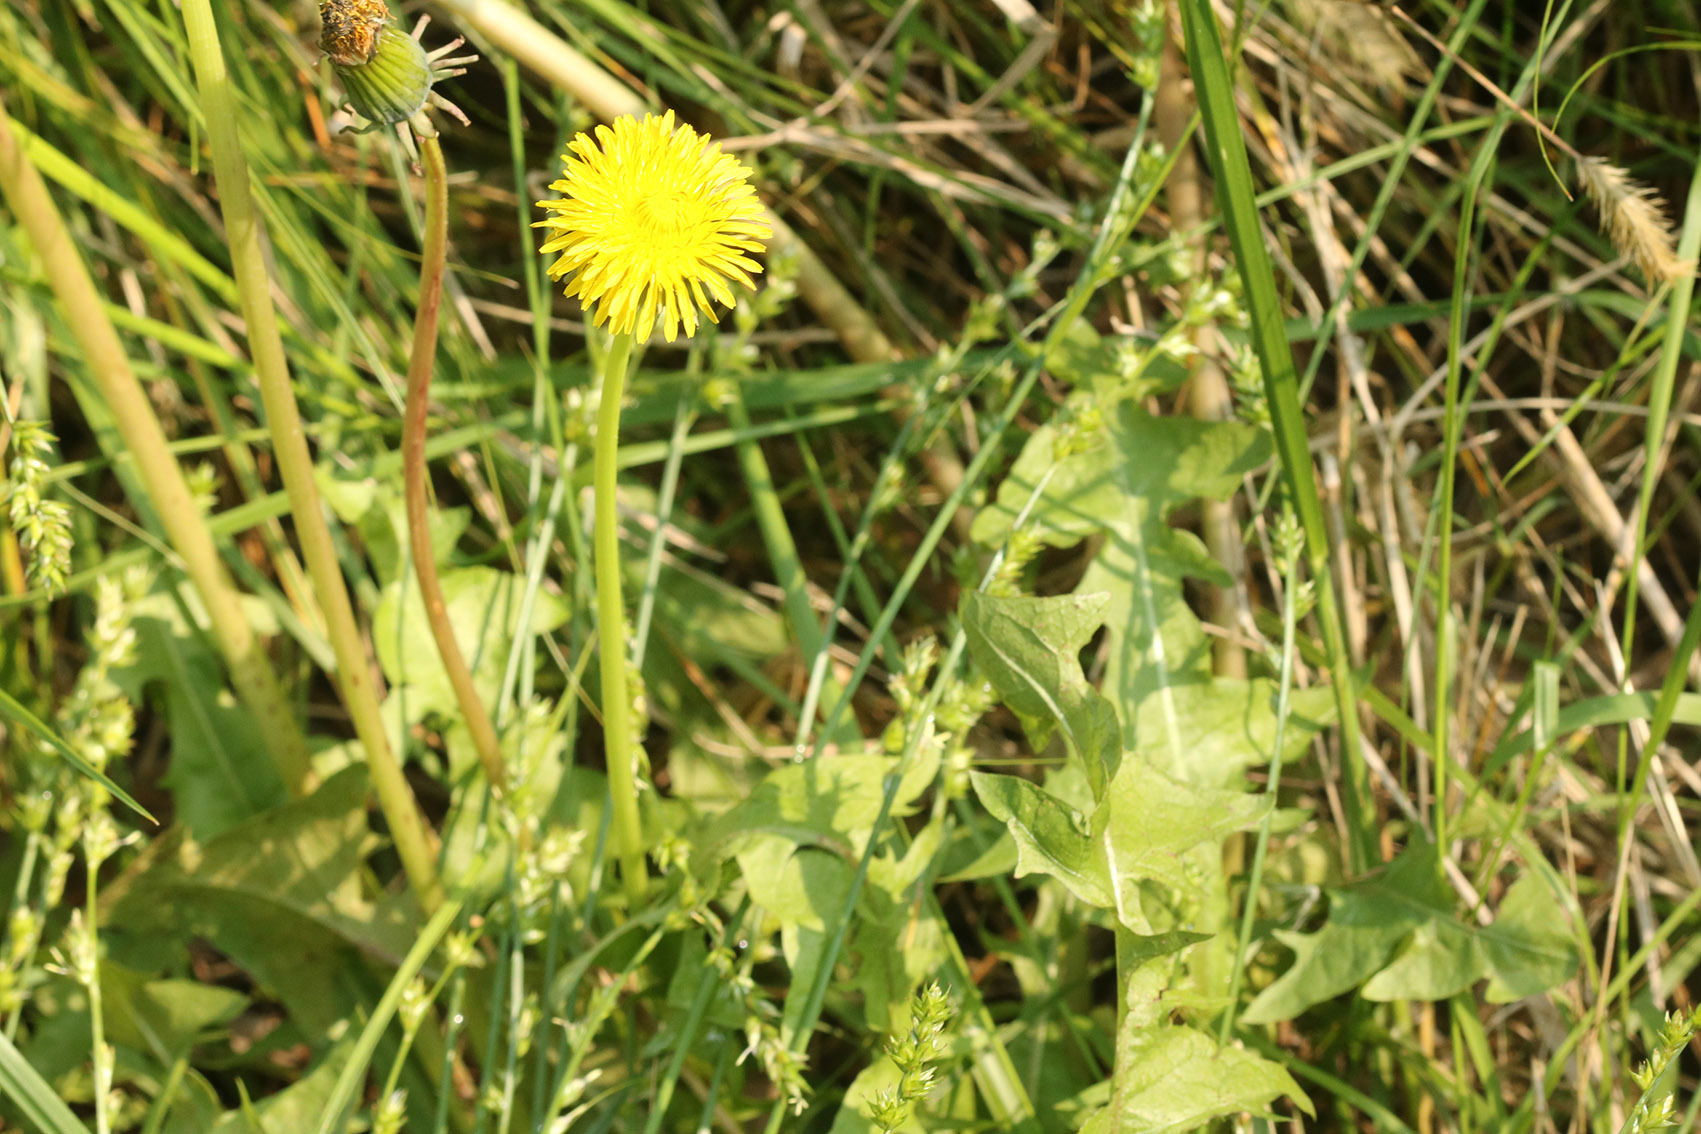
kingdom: Plantae
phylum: Tracheophyta
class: Magnoliopsida
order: Asterales
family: Asteraceae
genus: Taraxacum
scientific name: Taraxacum officinale
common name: Common dandelion
